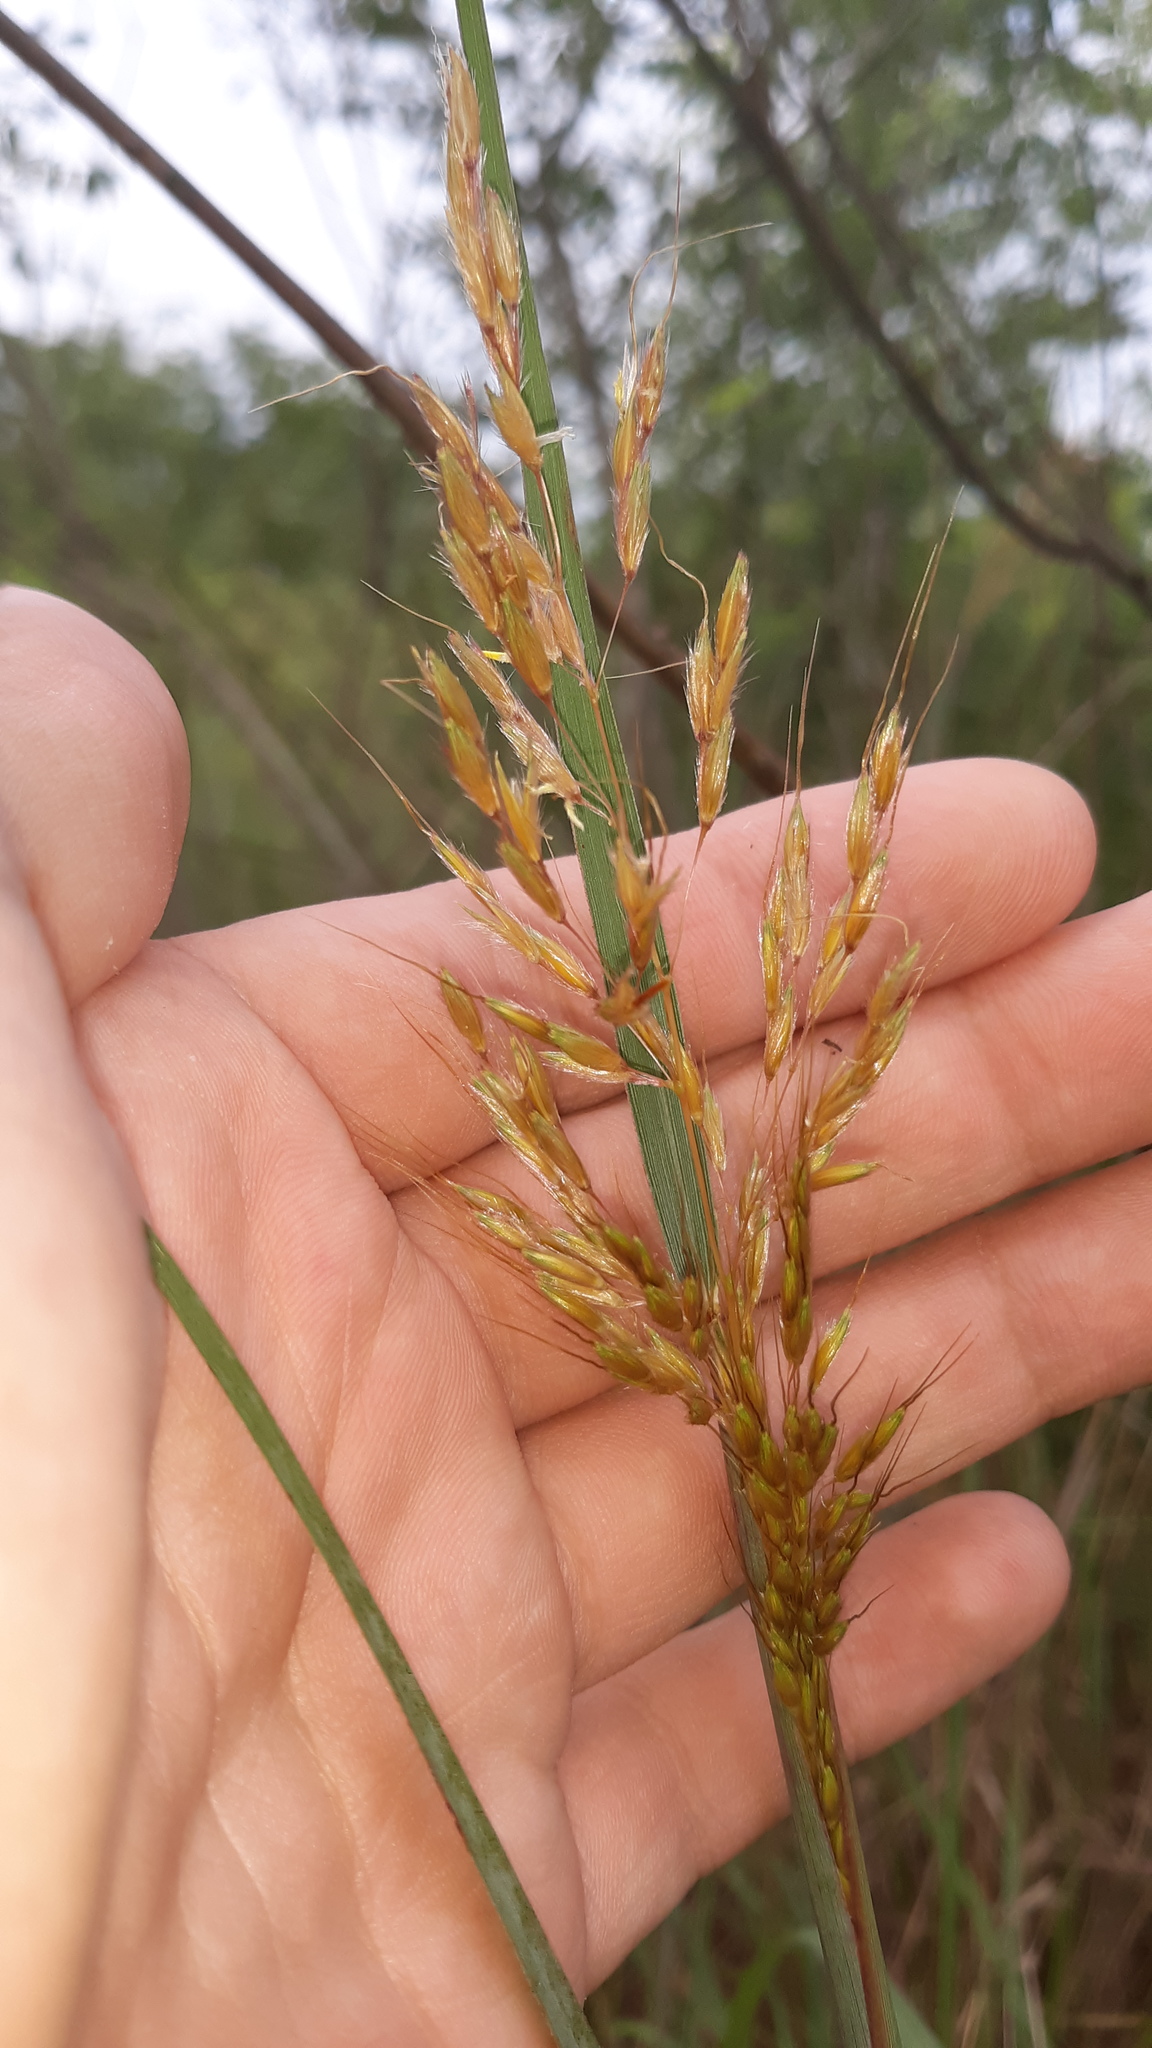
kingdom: Plantae
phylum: Tracheophyta
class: Liliopsida
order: Poales
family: Poaceae
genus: Sorghastrum
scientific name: Sorghastrum nutans
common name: Indian grass
